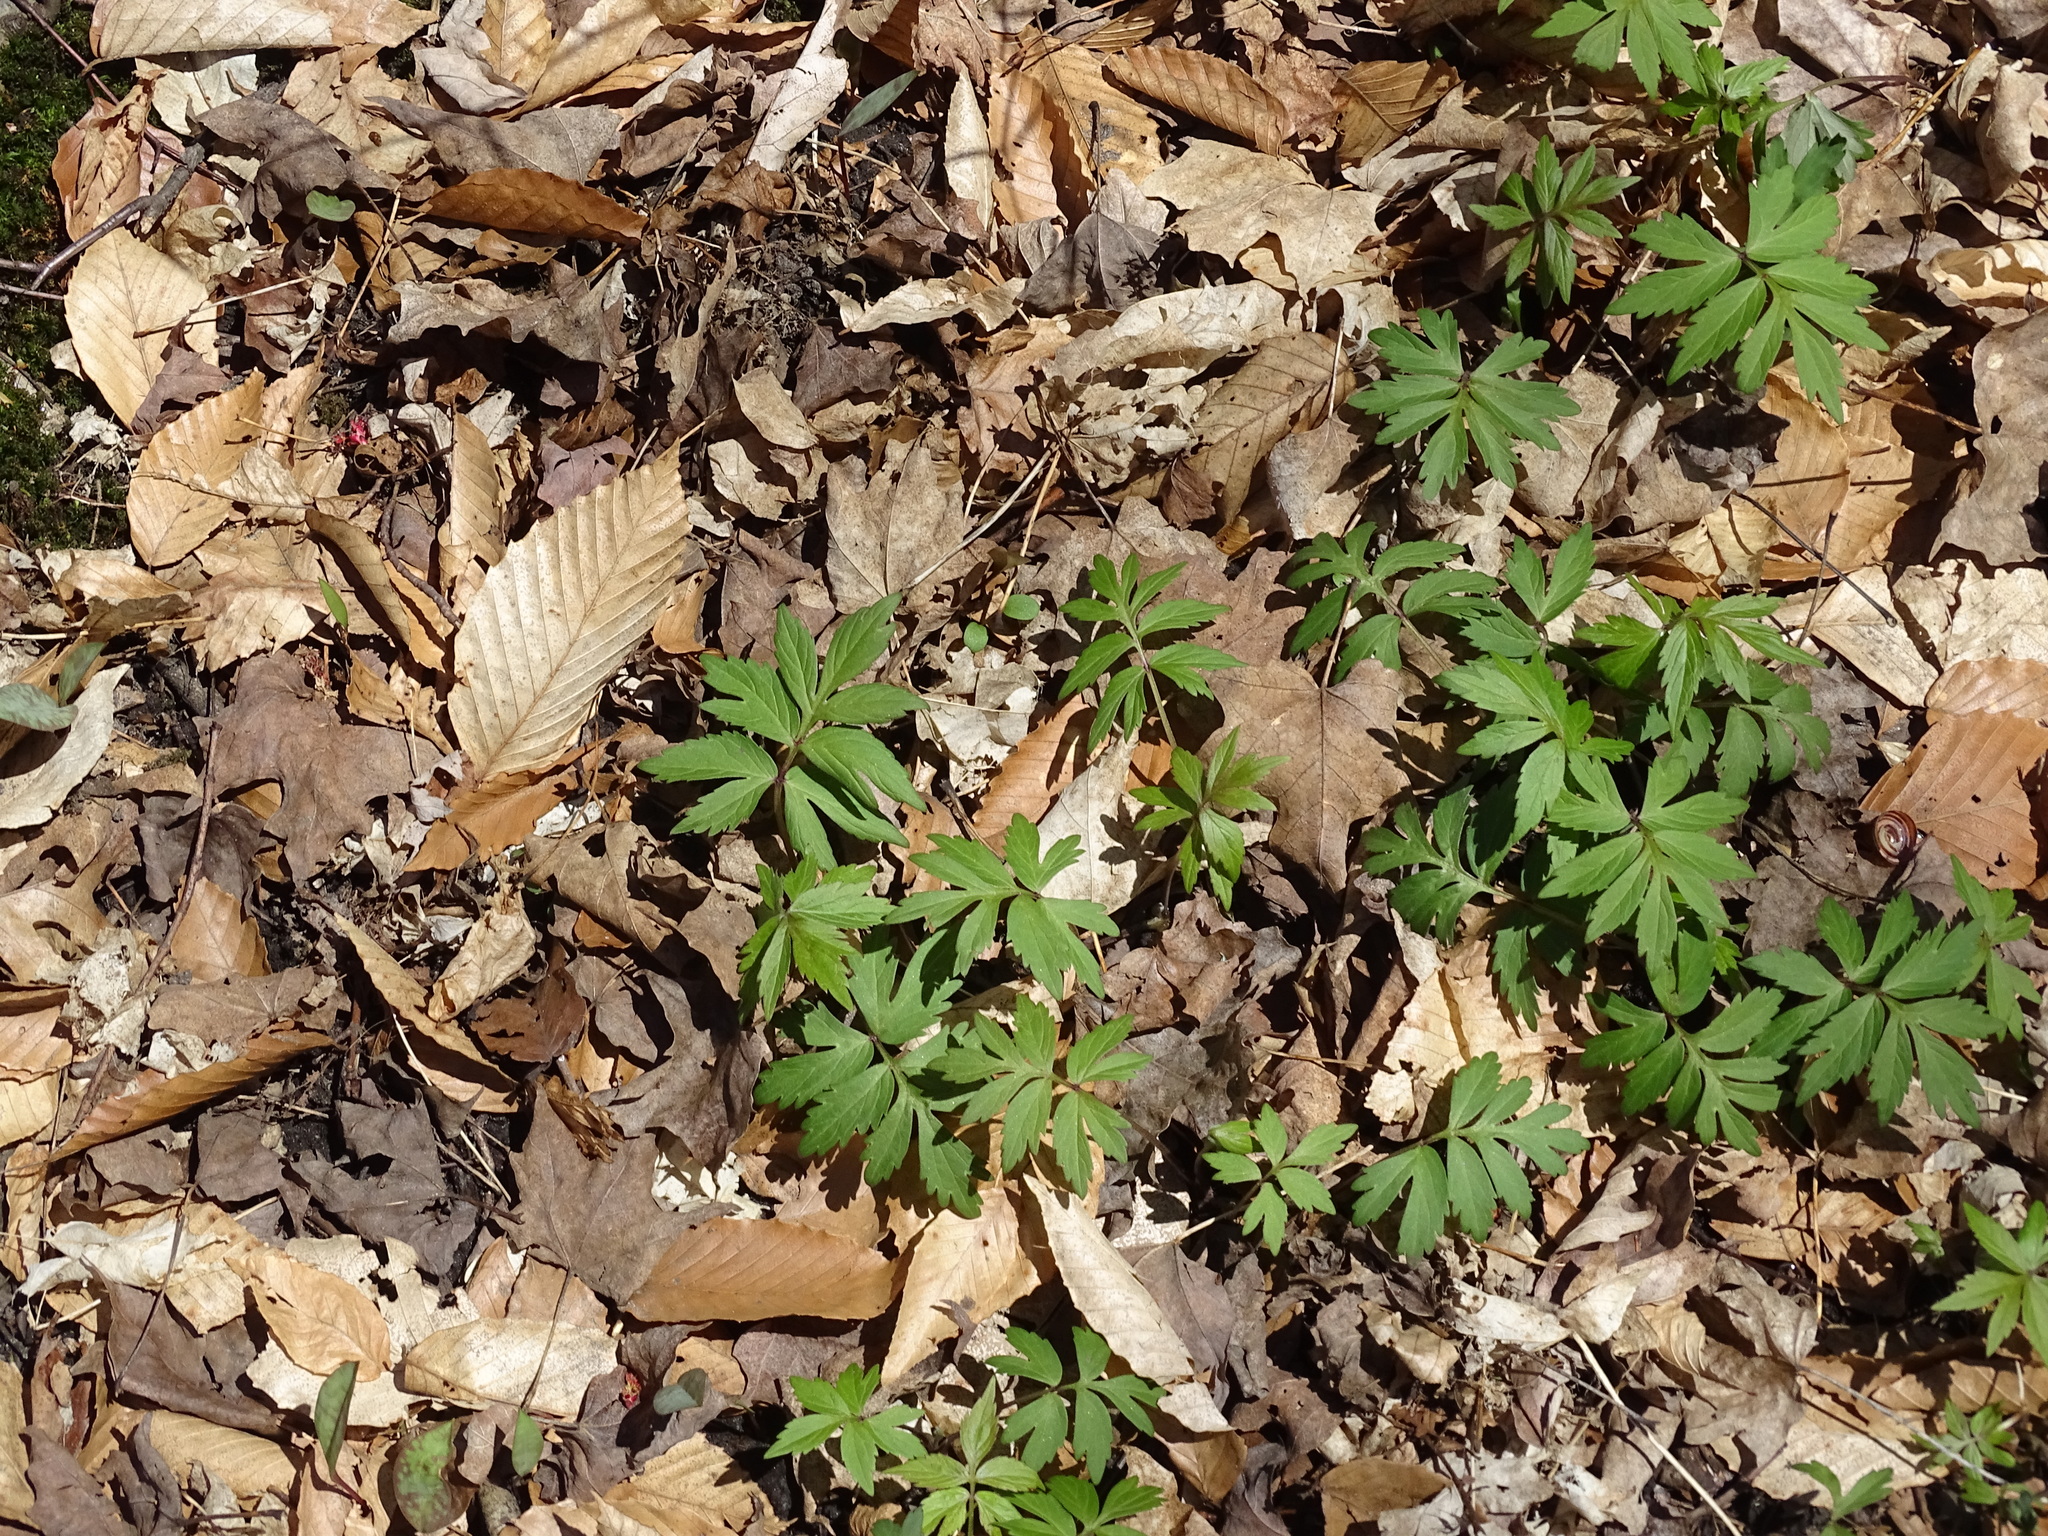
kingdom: Plantae
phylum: Tracheophyta
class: Magnoliopsida
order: Boraginales
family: Hydrophyllaceae
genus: Hydrophyllum
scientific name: Hydrophyllum virginianum
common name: Virginia waterleaf
